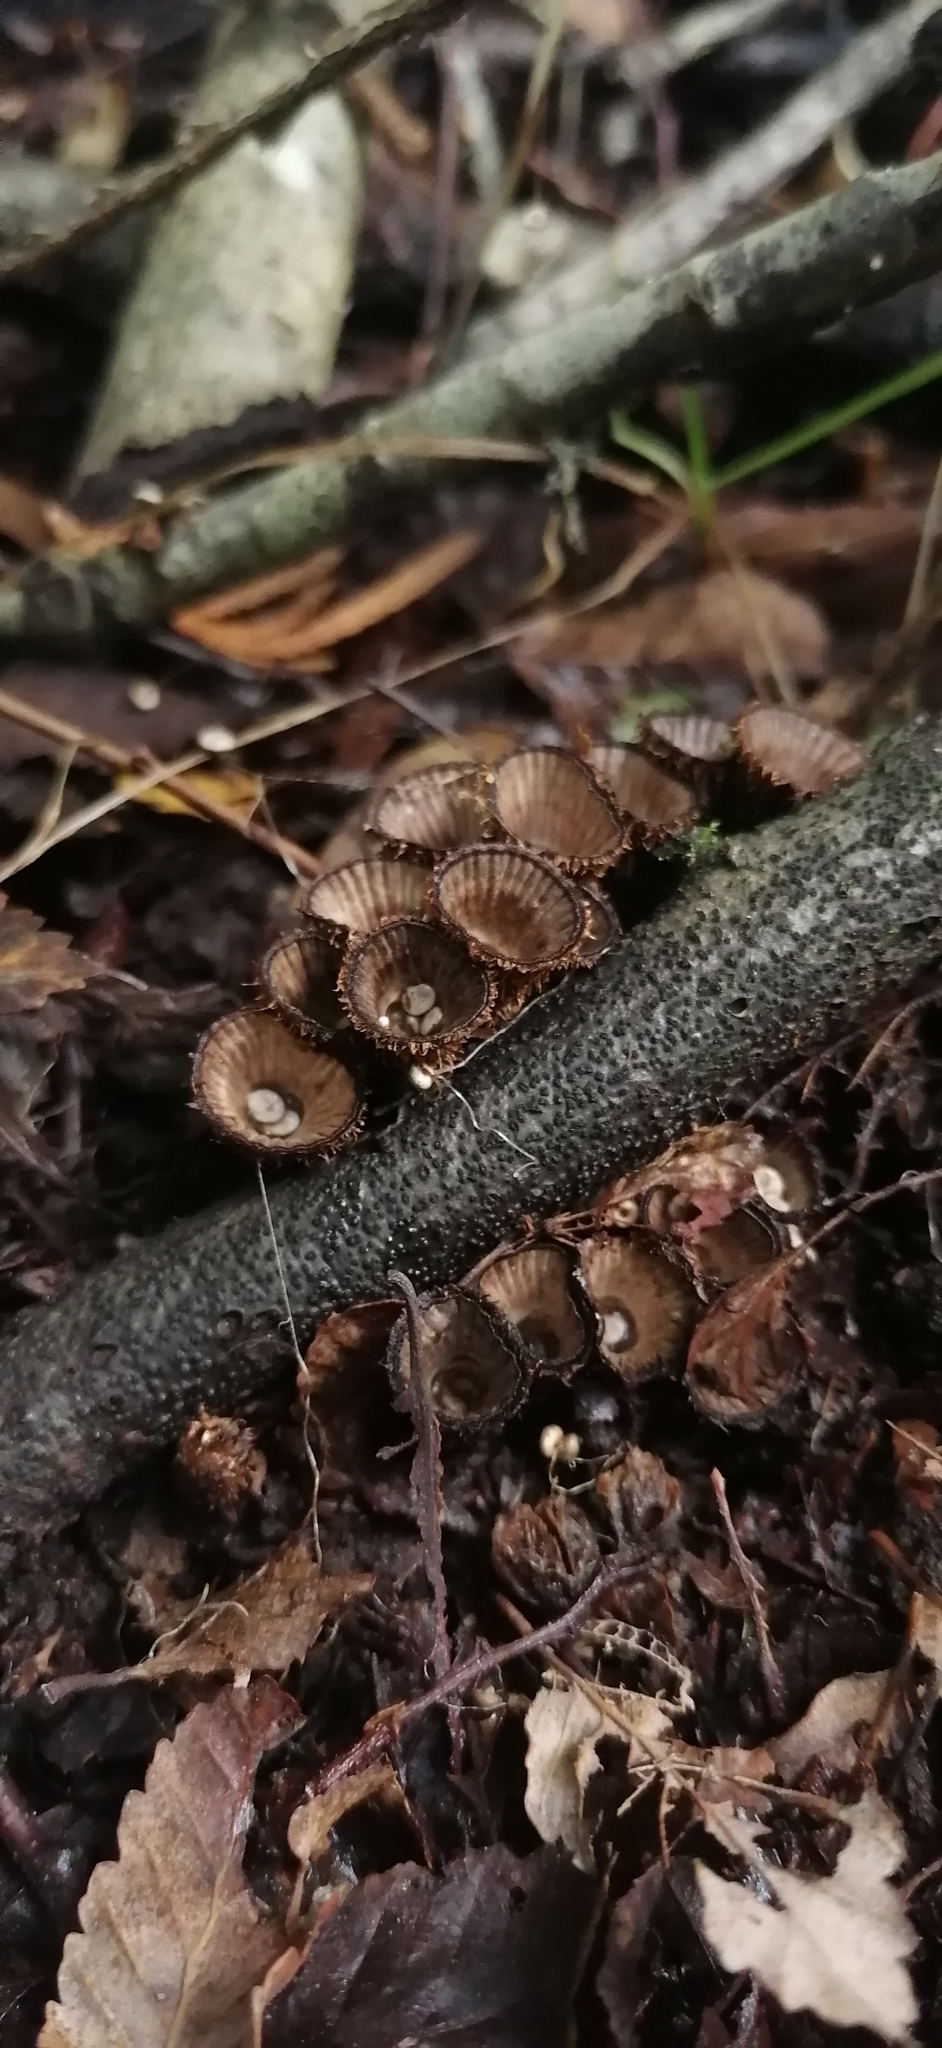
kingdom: Fungi
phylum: Basidiomycota
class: Agaricomycetes
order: Agaricales
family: Agaricaceae
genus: Cyathus
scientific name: Cyathus striatus
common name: Fluted bird's nest
